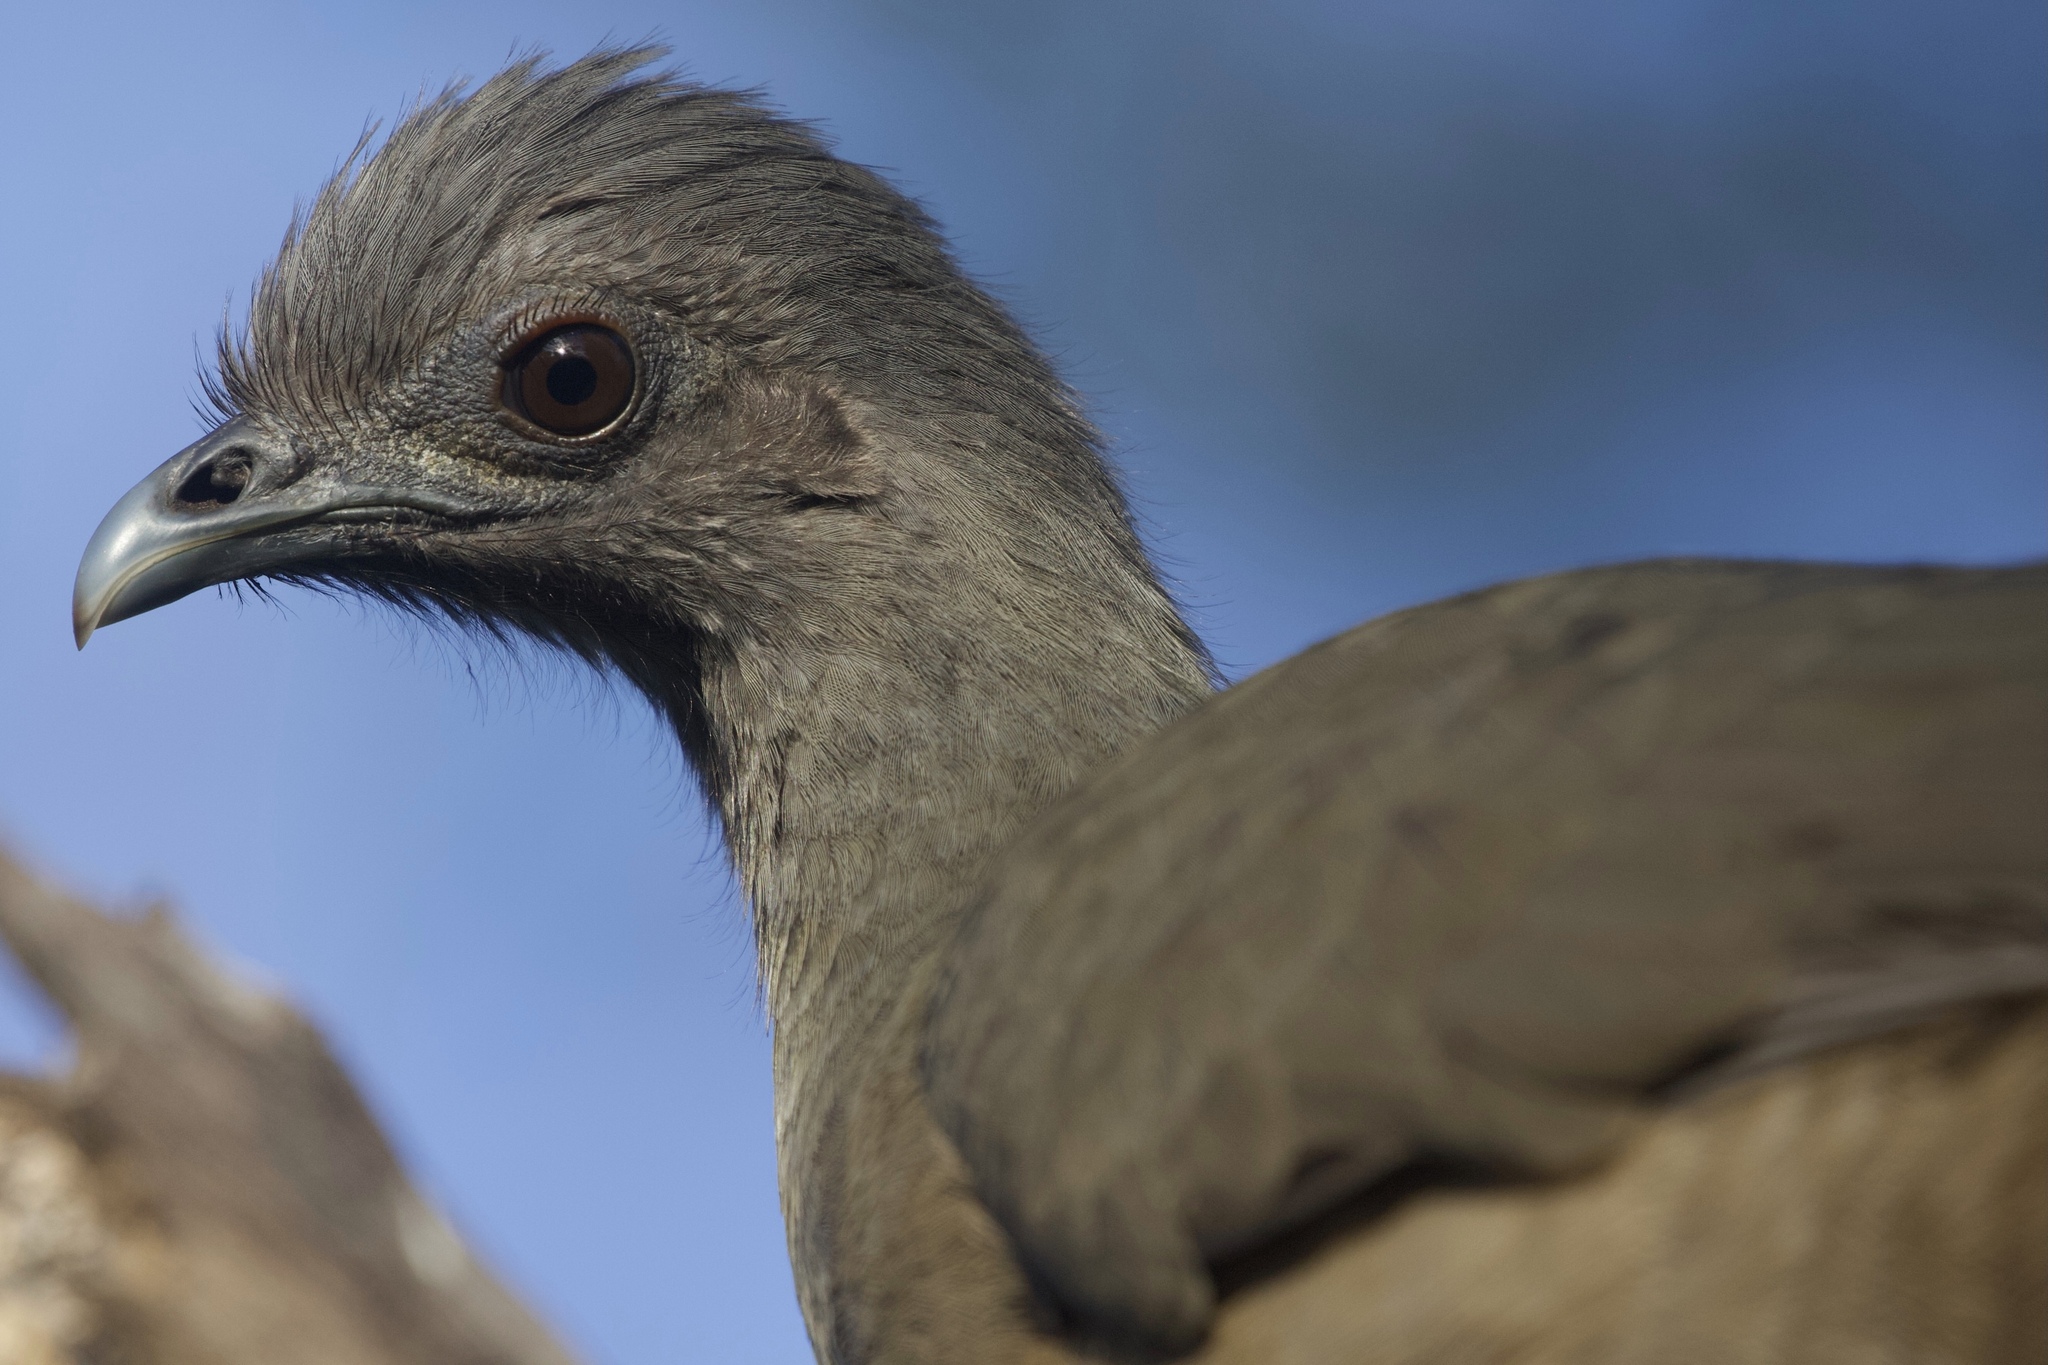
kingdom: Animalia
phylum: Chordata
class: Aves
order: Galliformes
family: Cracidae
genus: Ortalis
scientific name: Ortalis vetula
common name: Plain chachalaca
